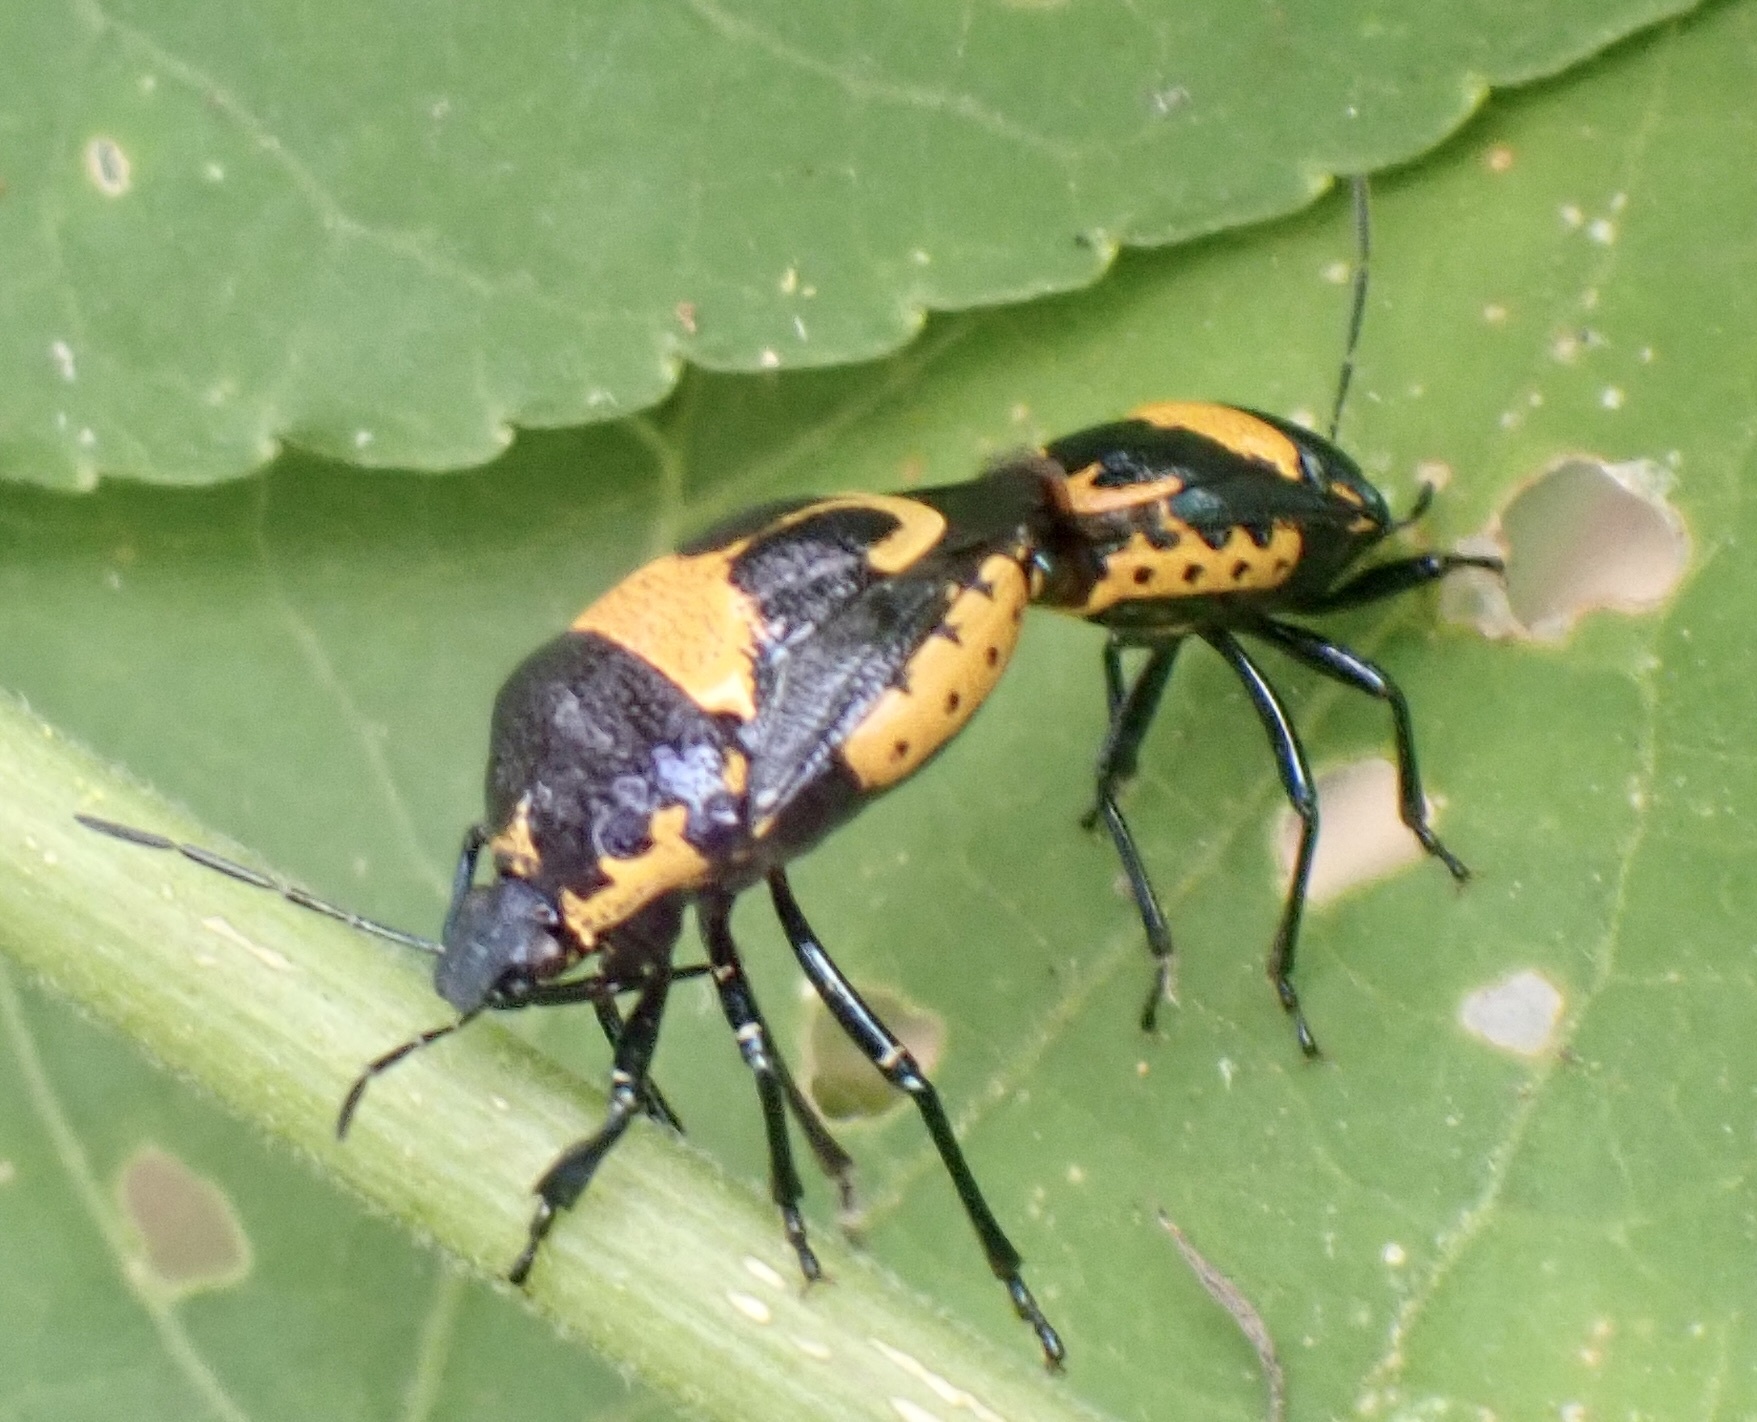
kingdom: Animalia
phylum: Arthropoda
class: Insecta
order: Hemiptera
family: Pentatomidae
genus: Stiretrus
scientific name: Stiretrus anchorago
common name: Anchor stink bug
